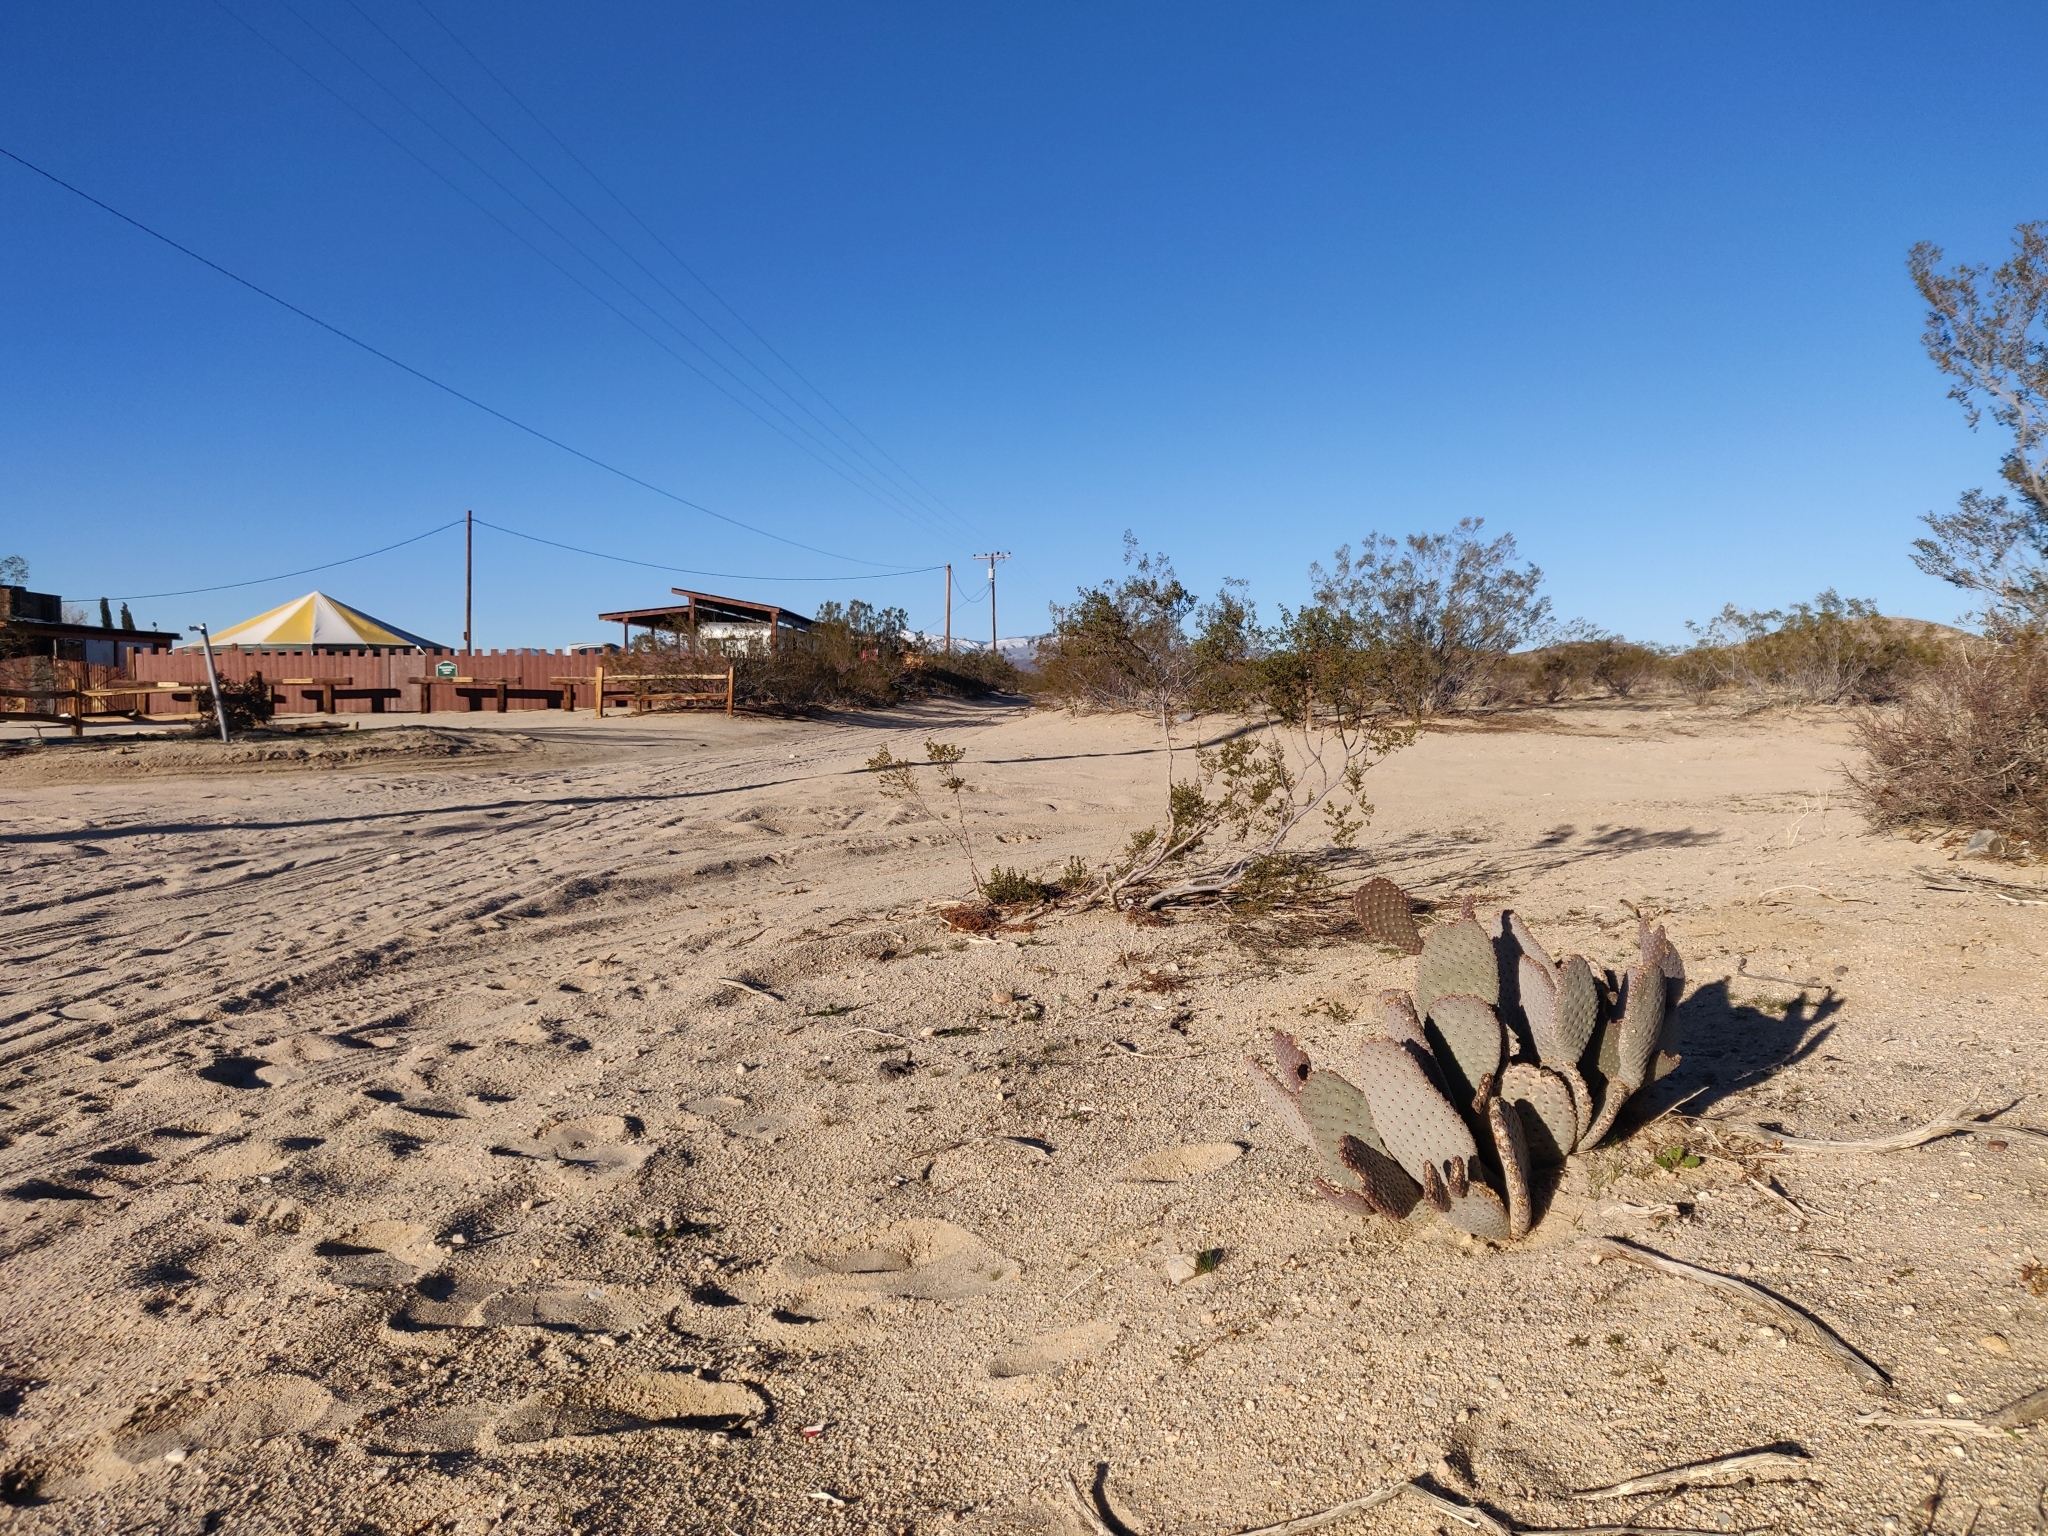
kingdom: Plantae
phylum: Tracheophyta
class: Magnoliopsida
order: Caryophyllales
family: Cactaceae
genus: Opuntia
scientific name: Opuntia basilaris
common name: Beavertail prickly-pear
